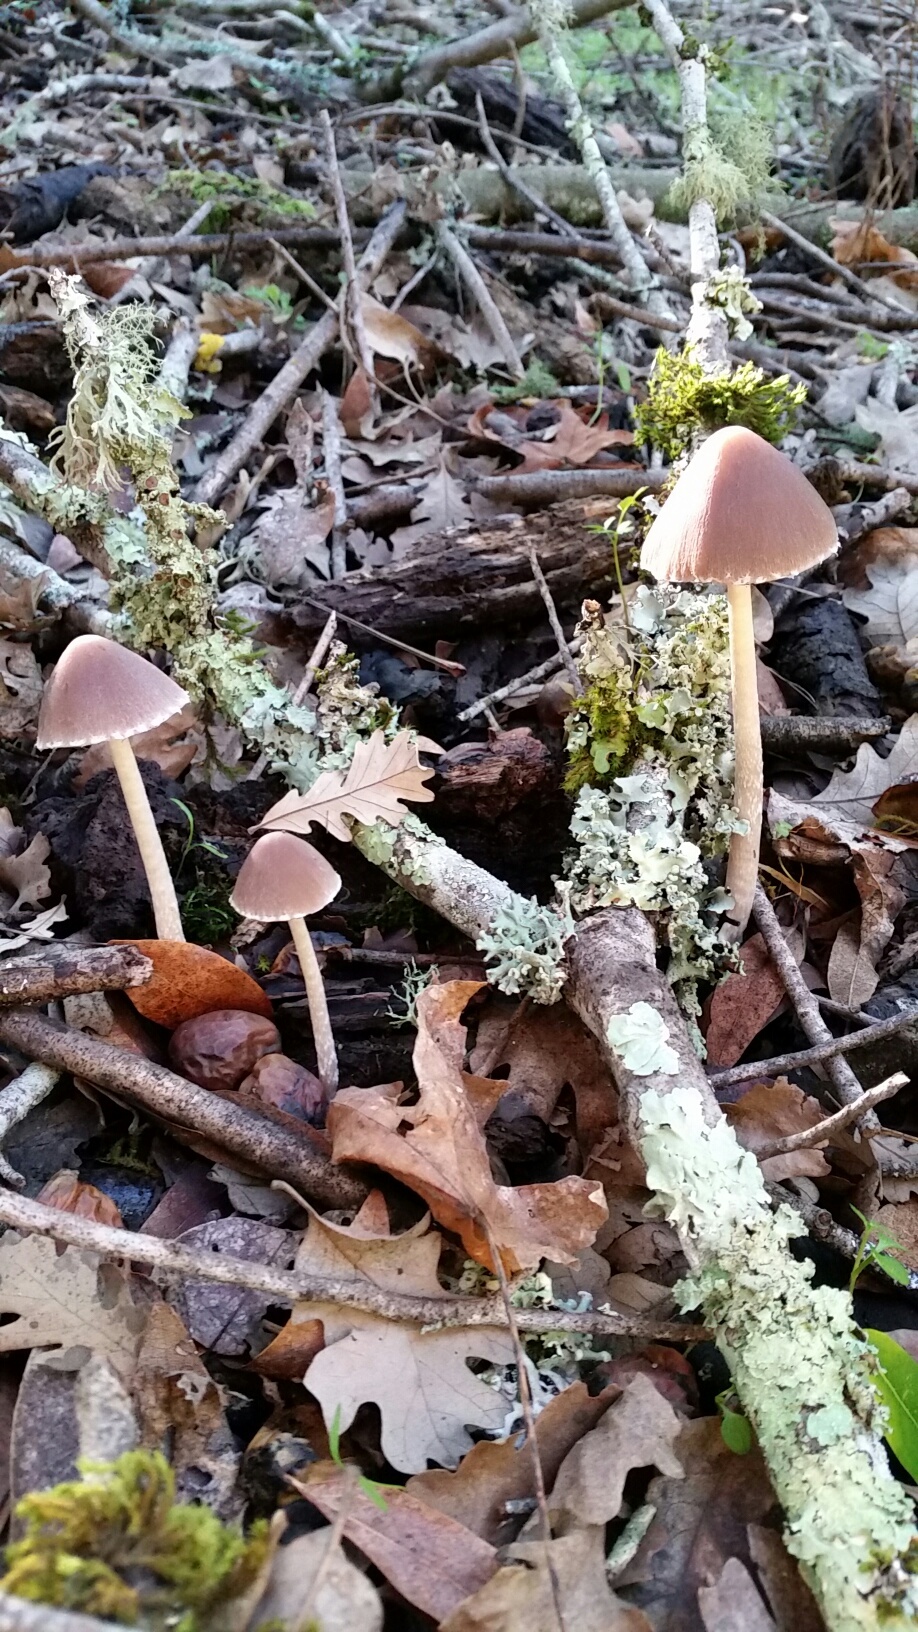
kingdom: Fungi
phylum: Basidiomycota
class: Agaricomycetes
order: Agaricales
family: Psathyrellaceae
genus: Psathyrella
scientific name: Psathyrella longipes
